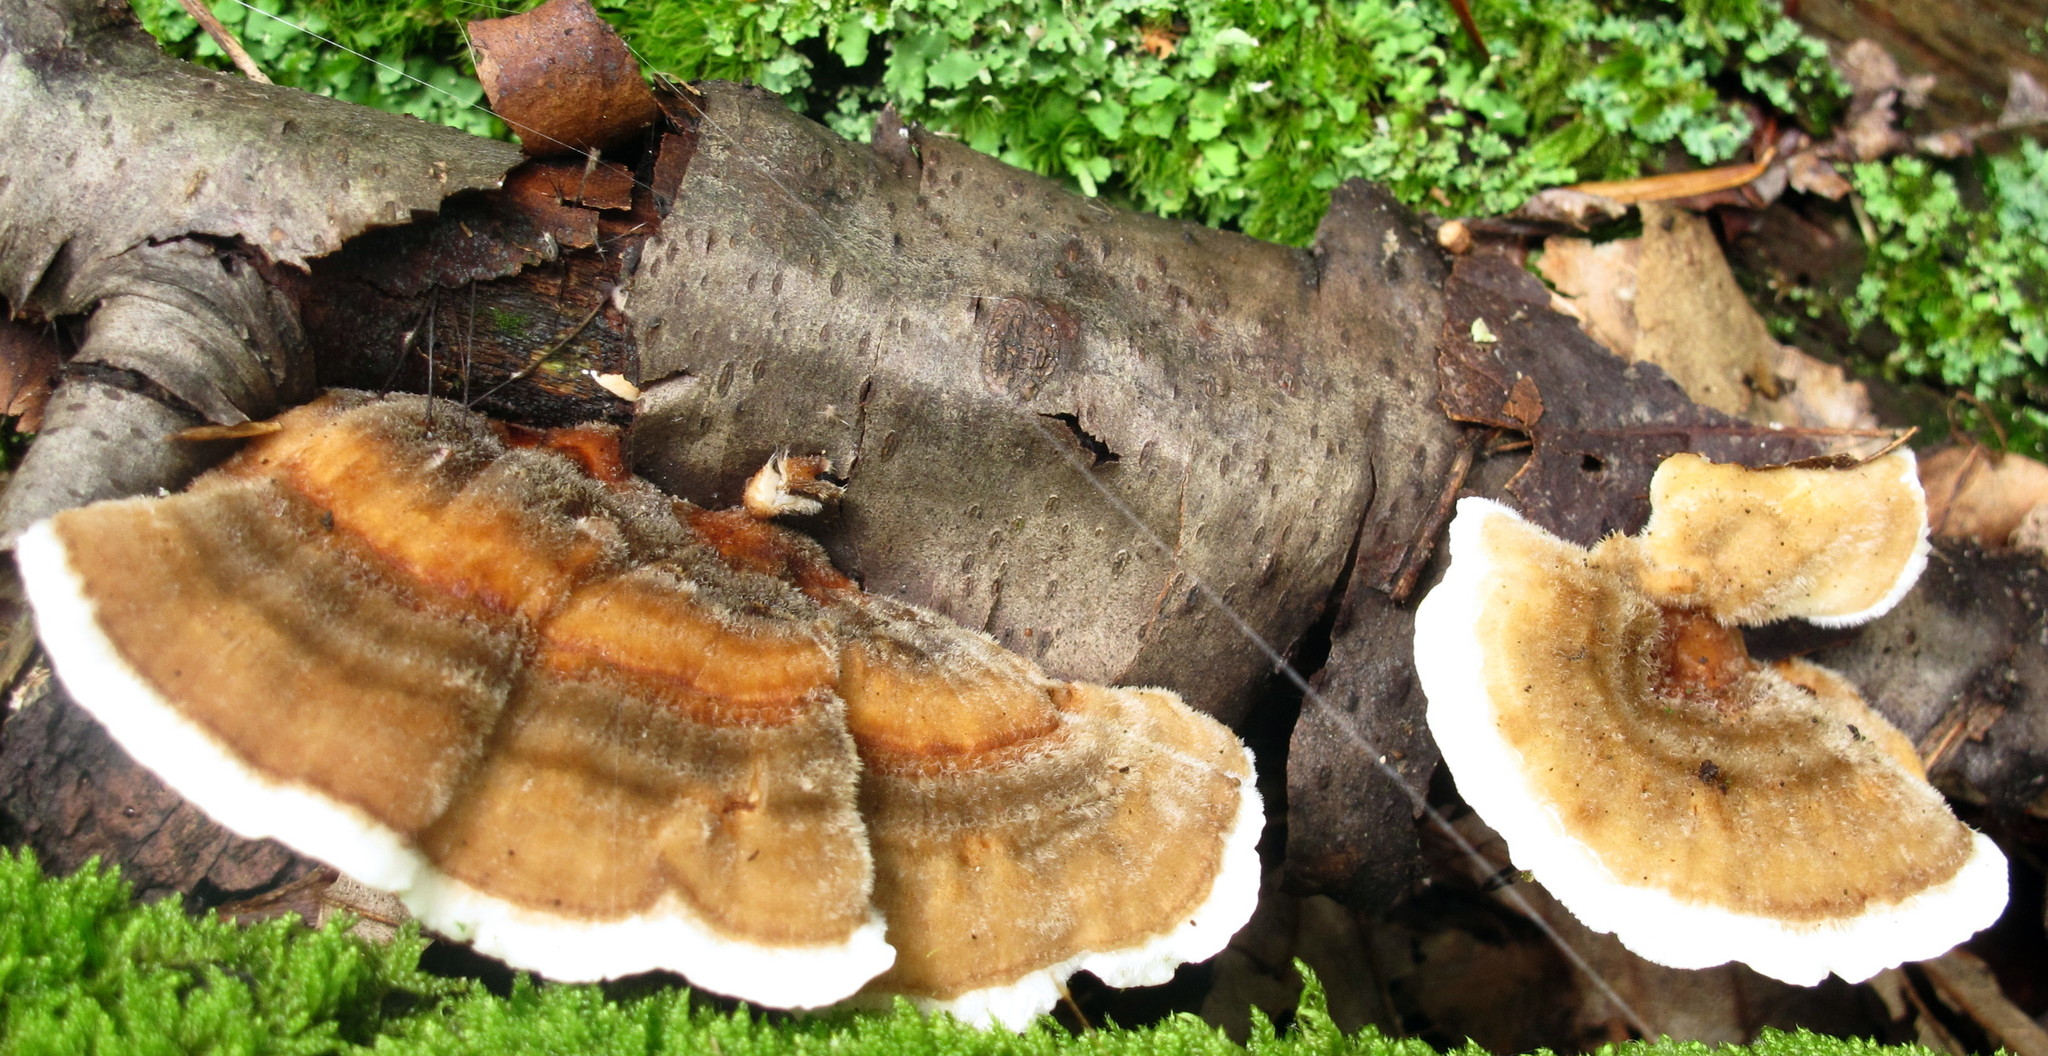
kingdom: Fungi
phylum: Basidiomycota
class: Agaricomycetes
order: Polyporales
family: Polyporaceae
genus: Trametes
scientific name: Trametes versicolor
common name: Turkeytail
